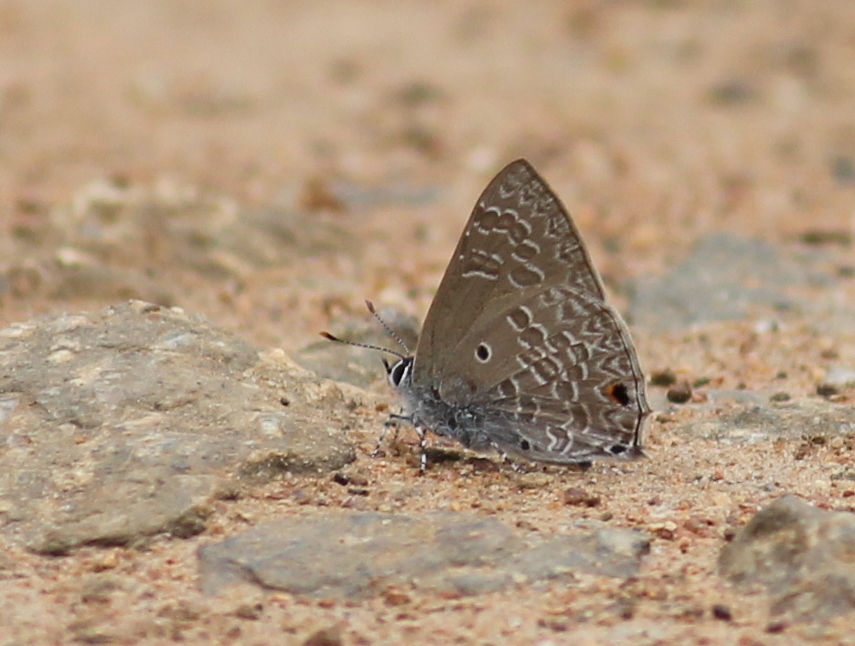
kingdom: Animalia
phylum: Arthropoda
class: Insecta
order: Lepidoptera
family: Lycaenidae
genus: Anthene
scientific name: Anthene lycaenina
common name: Pointed ciliate blue
